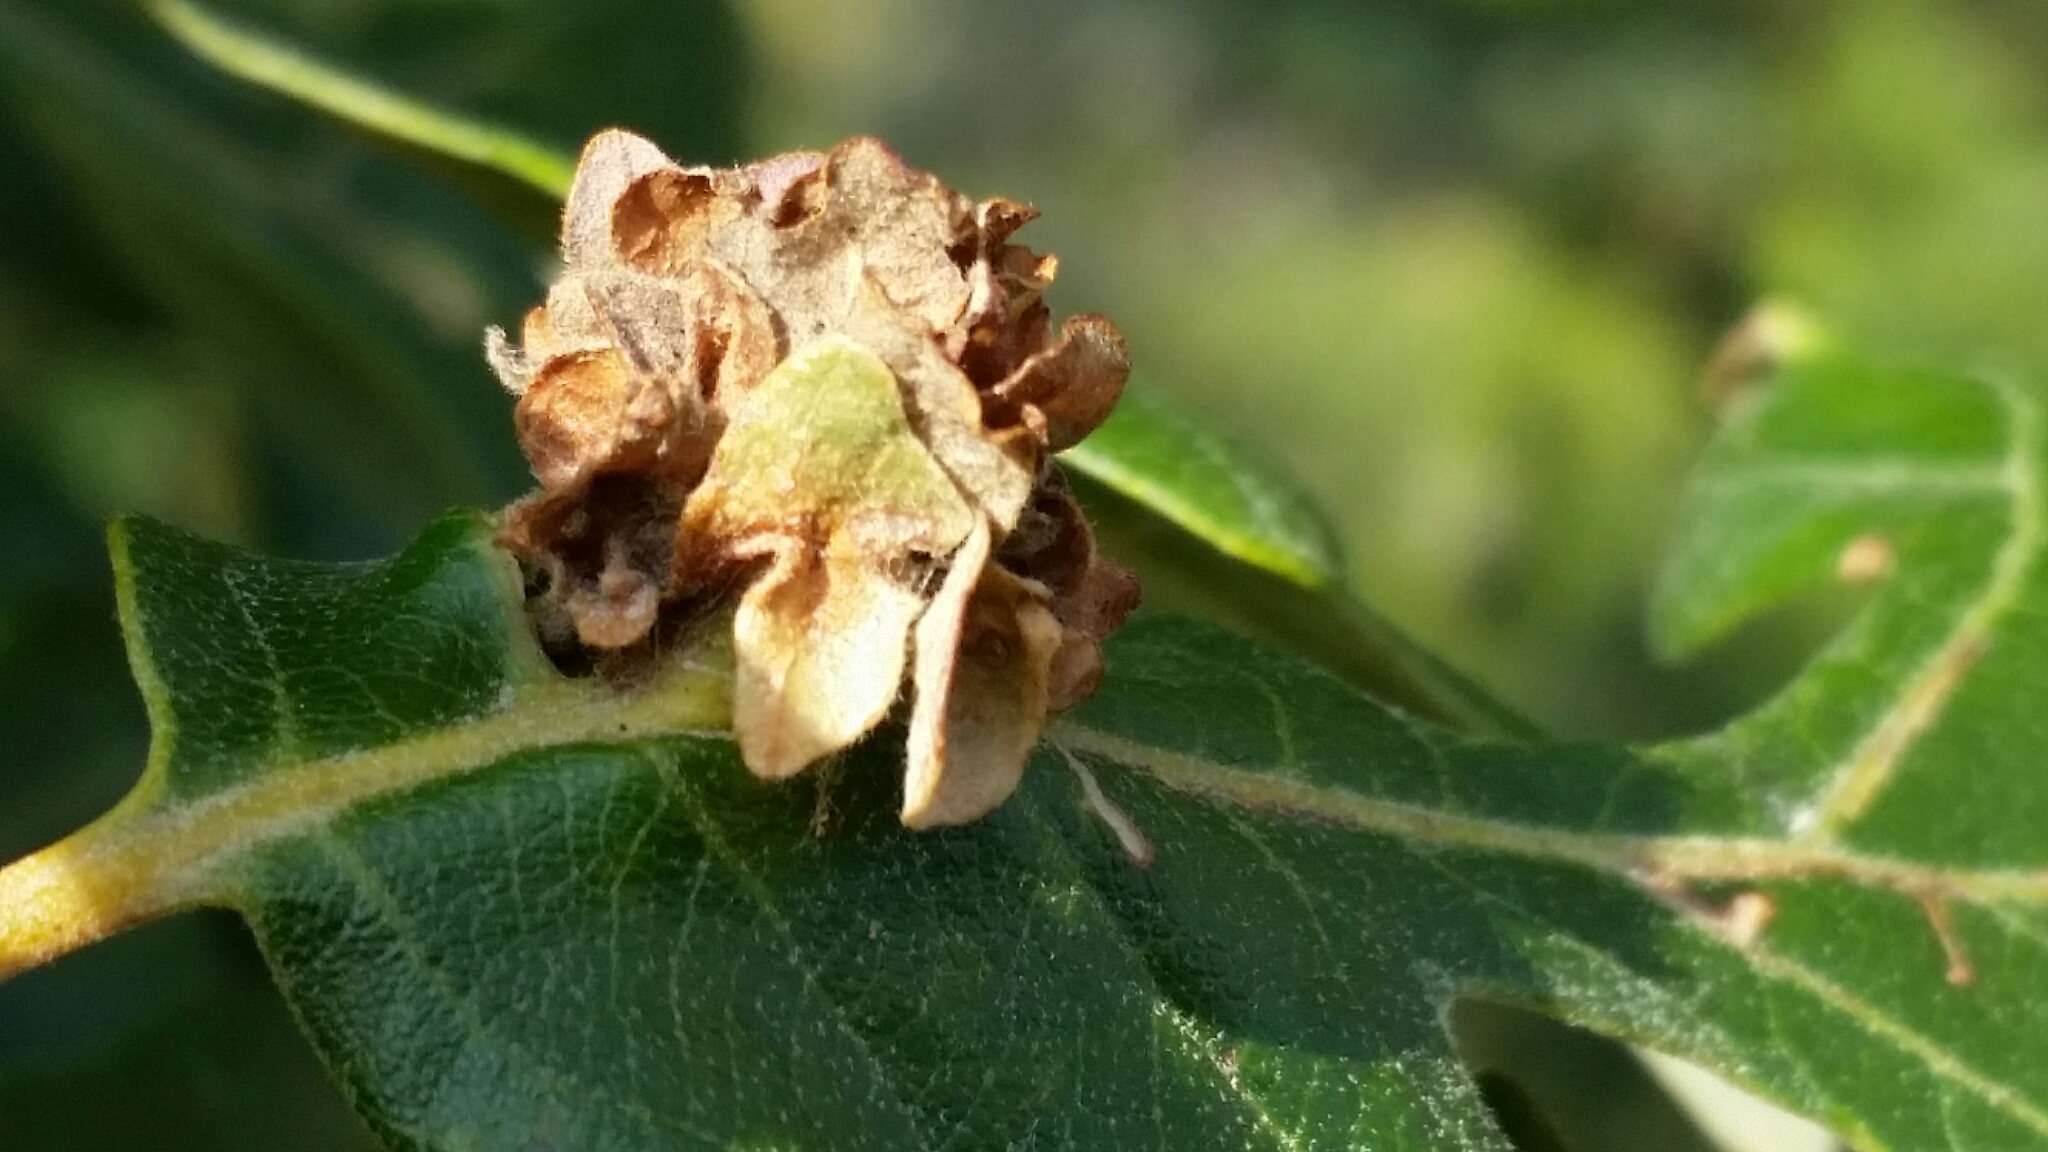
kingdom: Animalia
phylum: Arthropoda
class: Insecta
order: Hymenoptera
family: Cynipidae
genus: Andricus
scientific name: Andricus
